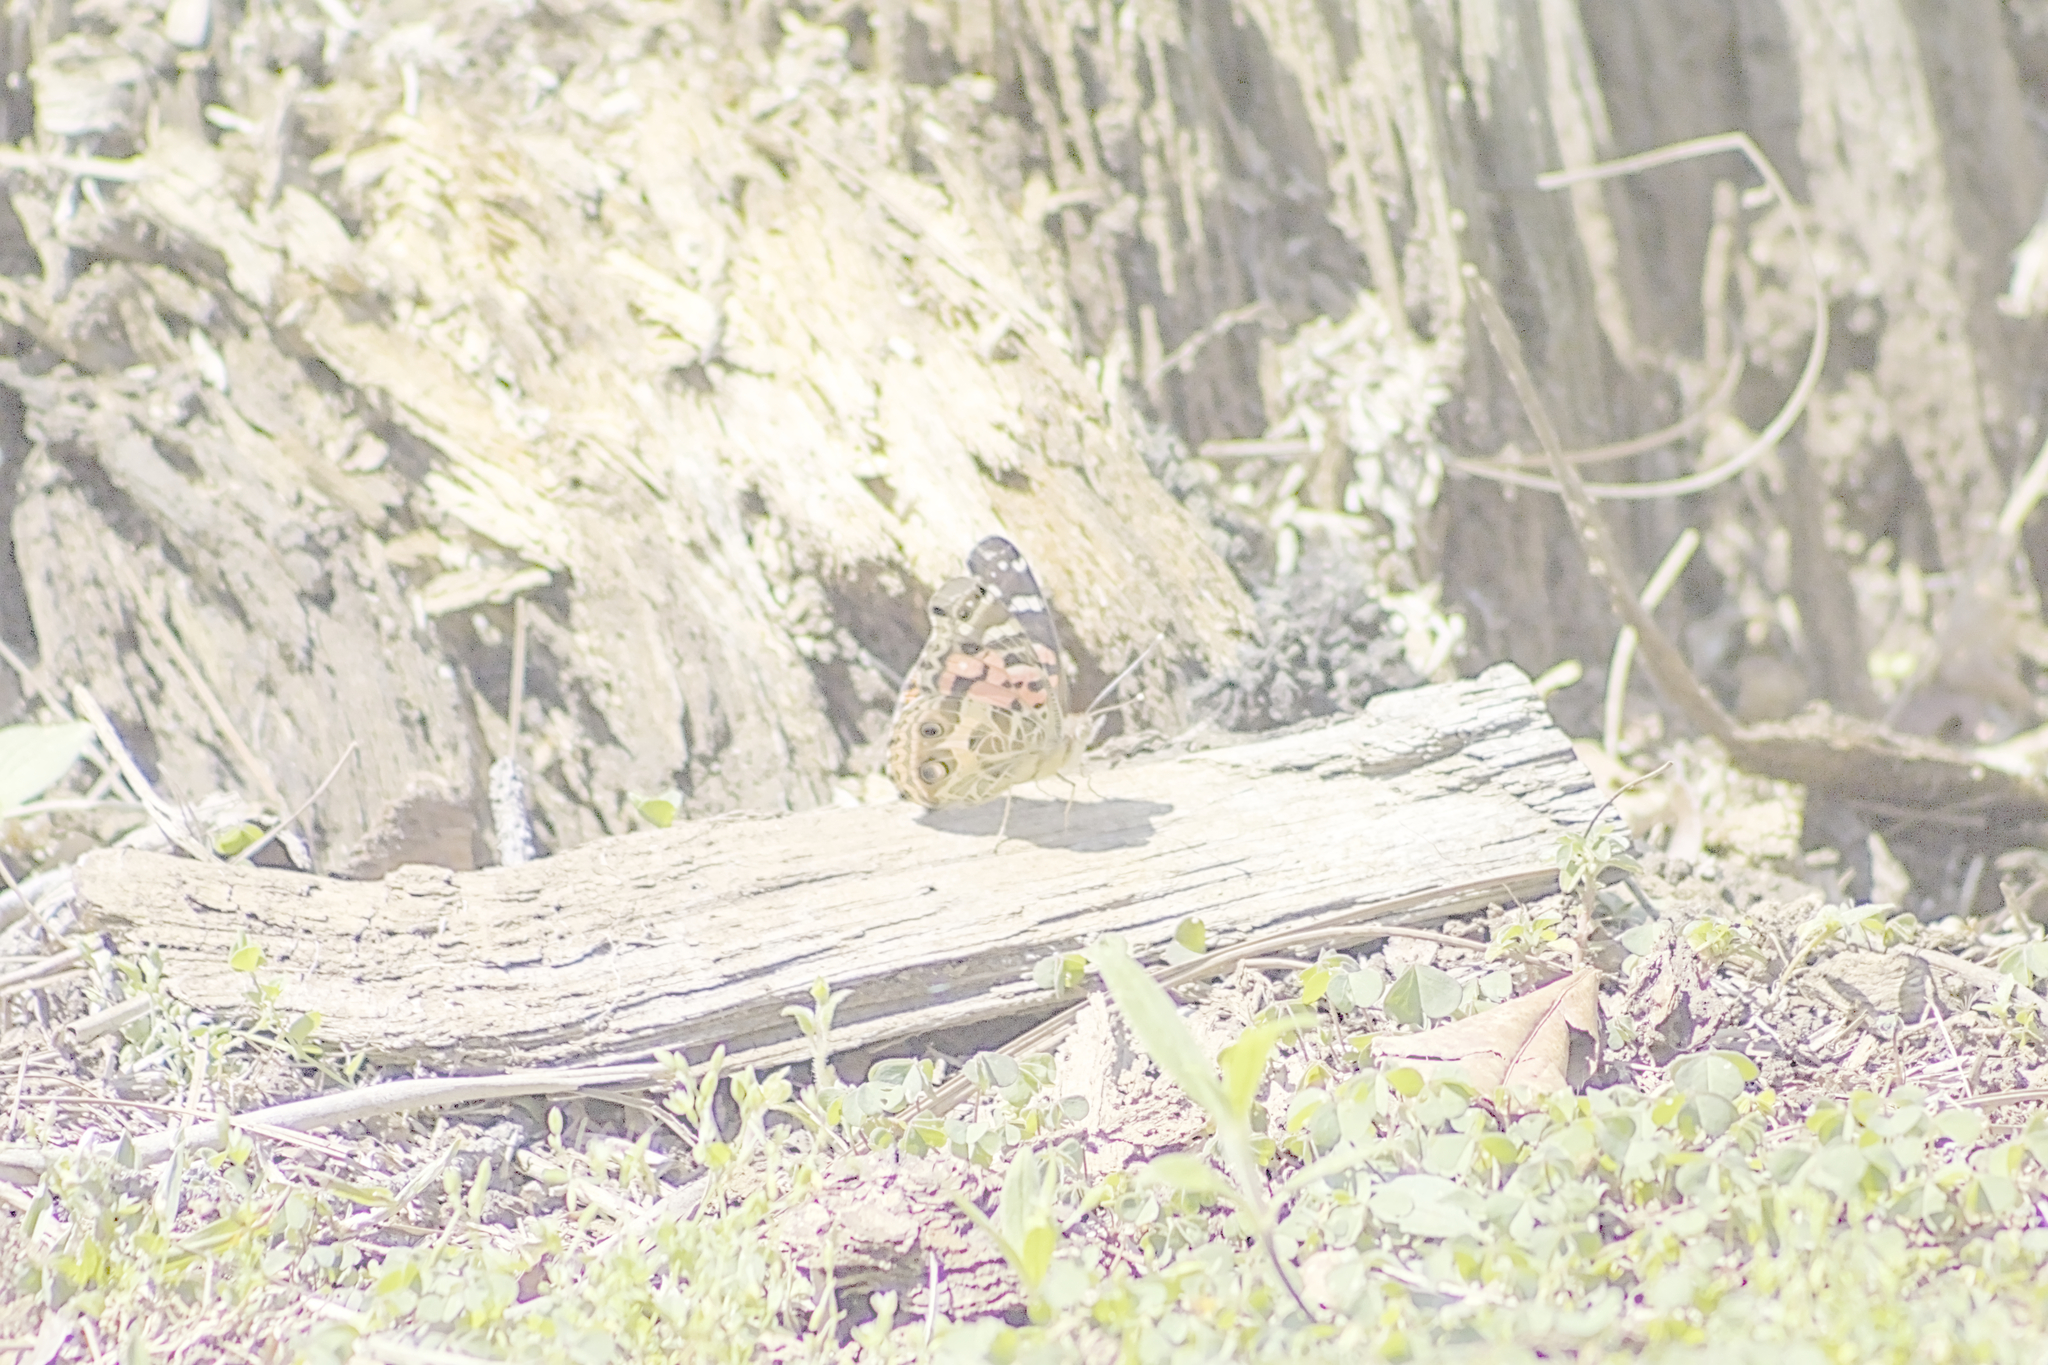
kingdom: Animalia
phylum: Arthropoda
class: Insecta
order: Lepidoptera
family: Nymphalidae
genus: Vanessa
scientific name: Vanessa braziliensis
